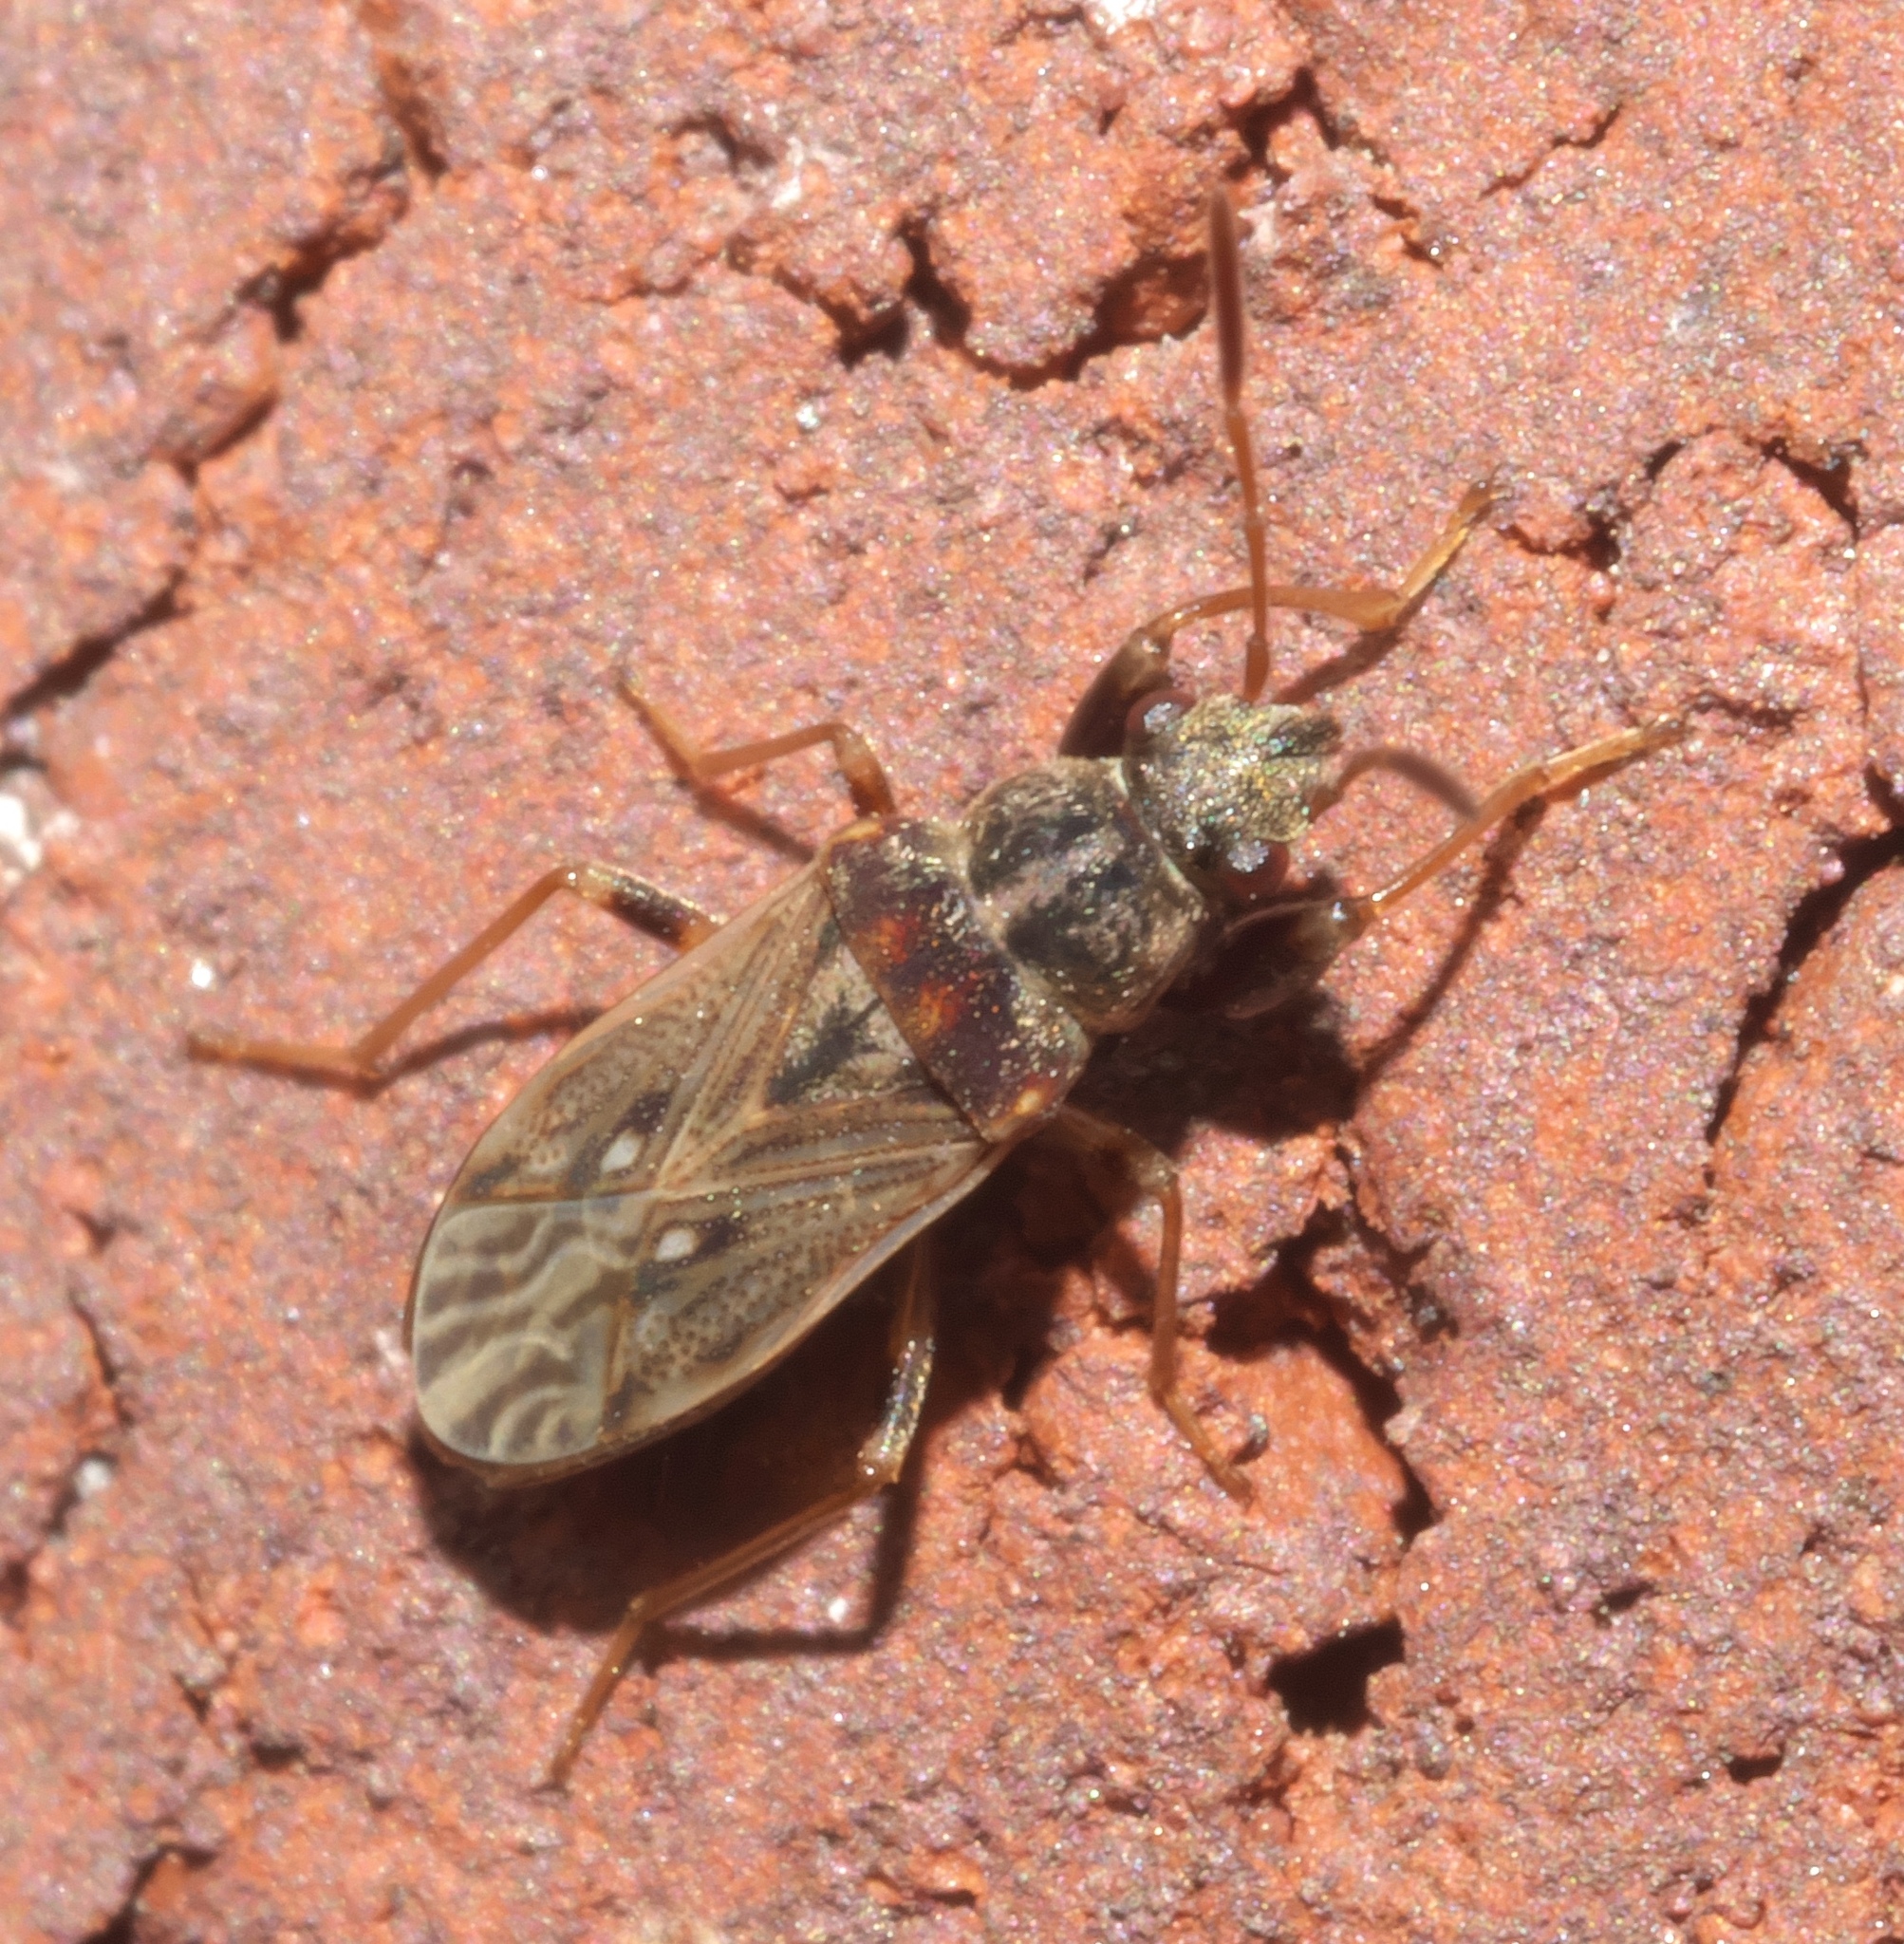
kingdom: Animalia
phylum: Arthropoda
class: Insecta
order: Hemiptera
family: Rhyparochromidae
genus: Pseudopachybrachius
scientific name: Pseudopachybrachius basalis
